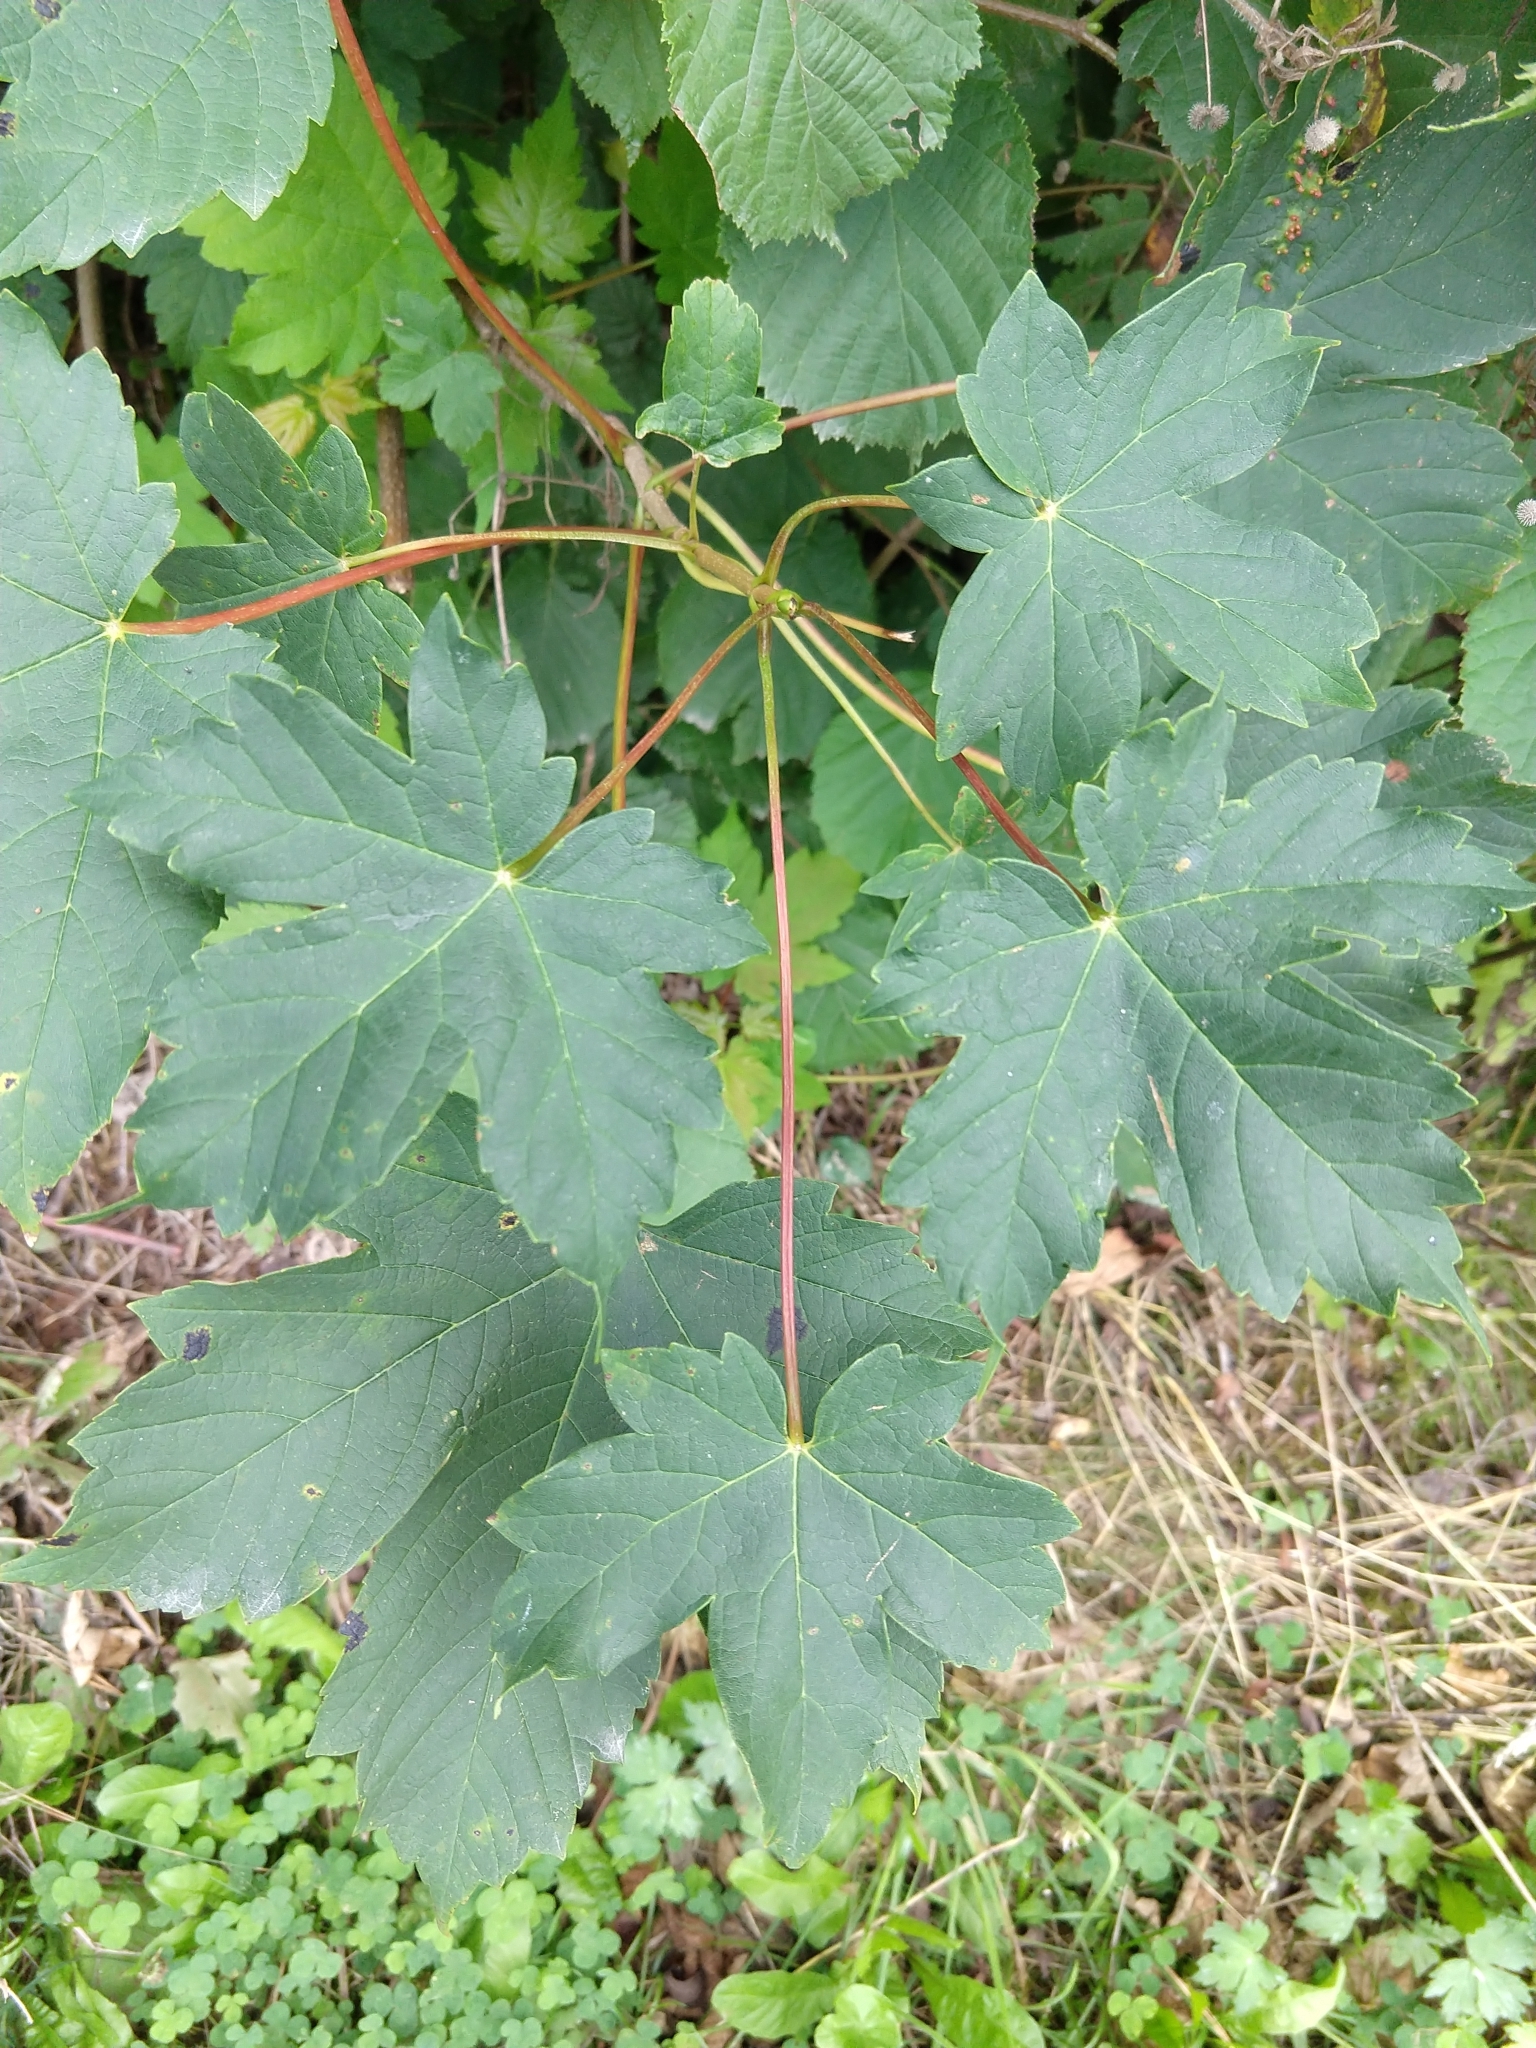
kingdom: Plantae
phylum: Tracheophyta
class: Magnoliopsida
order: Sapindales
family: Sapindaceae
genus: Acer
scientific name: Acer pseudoplatanus
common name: Sycamore
